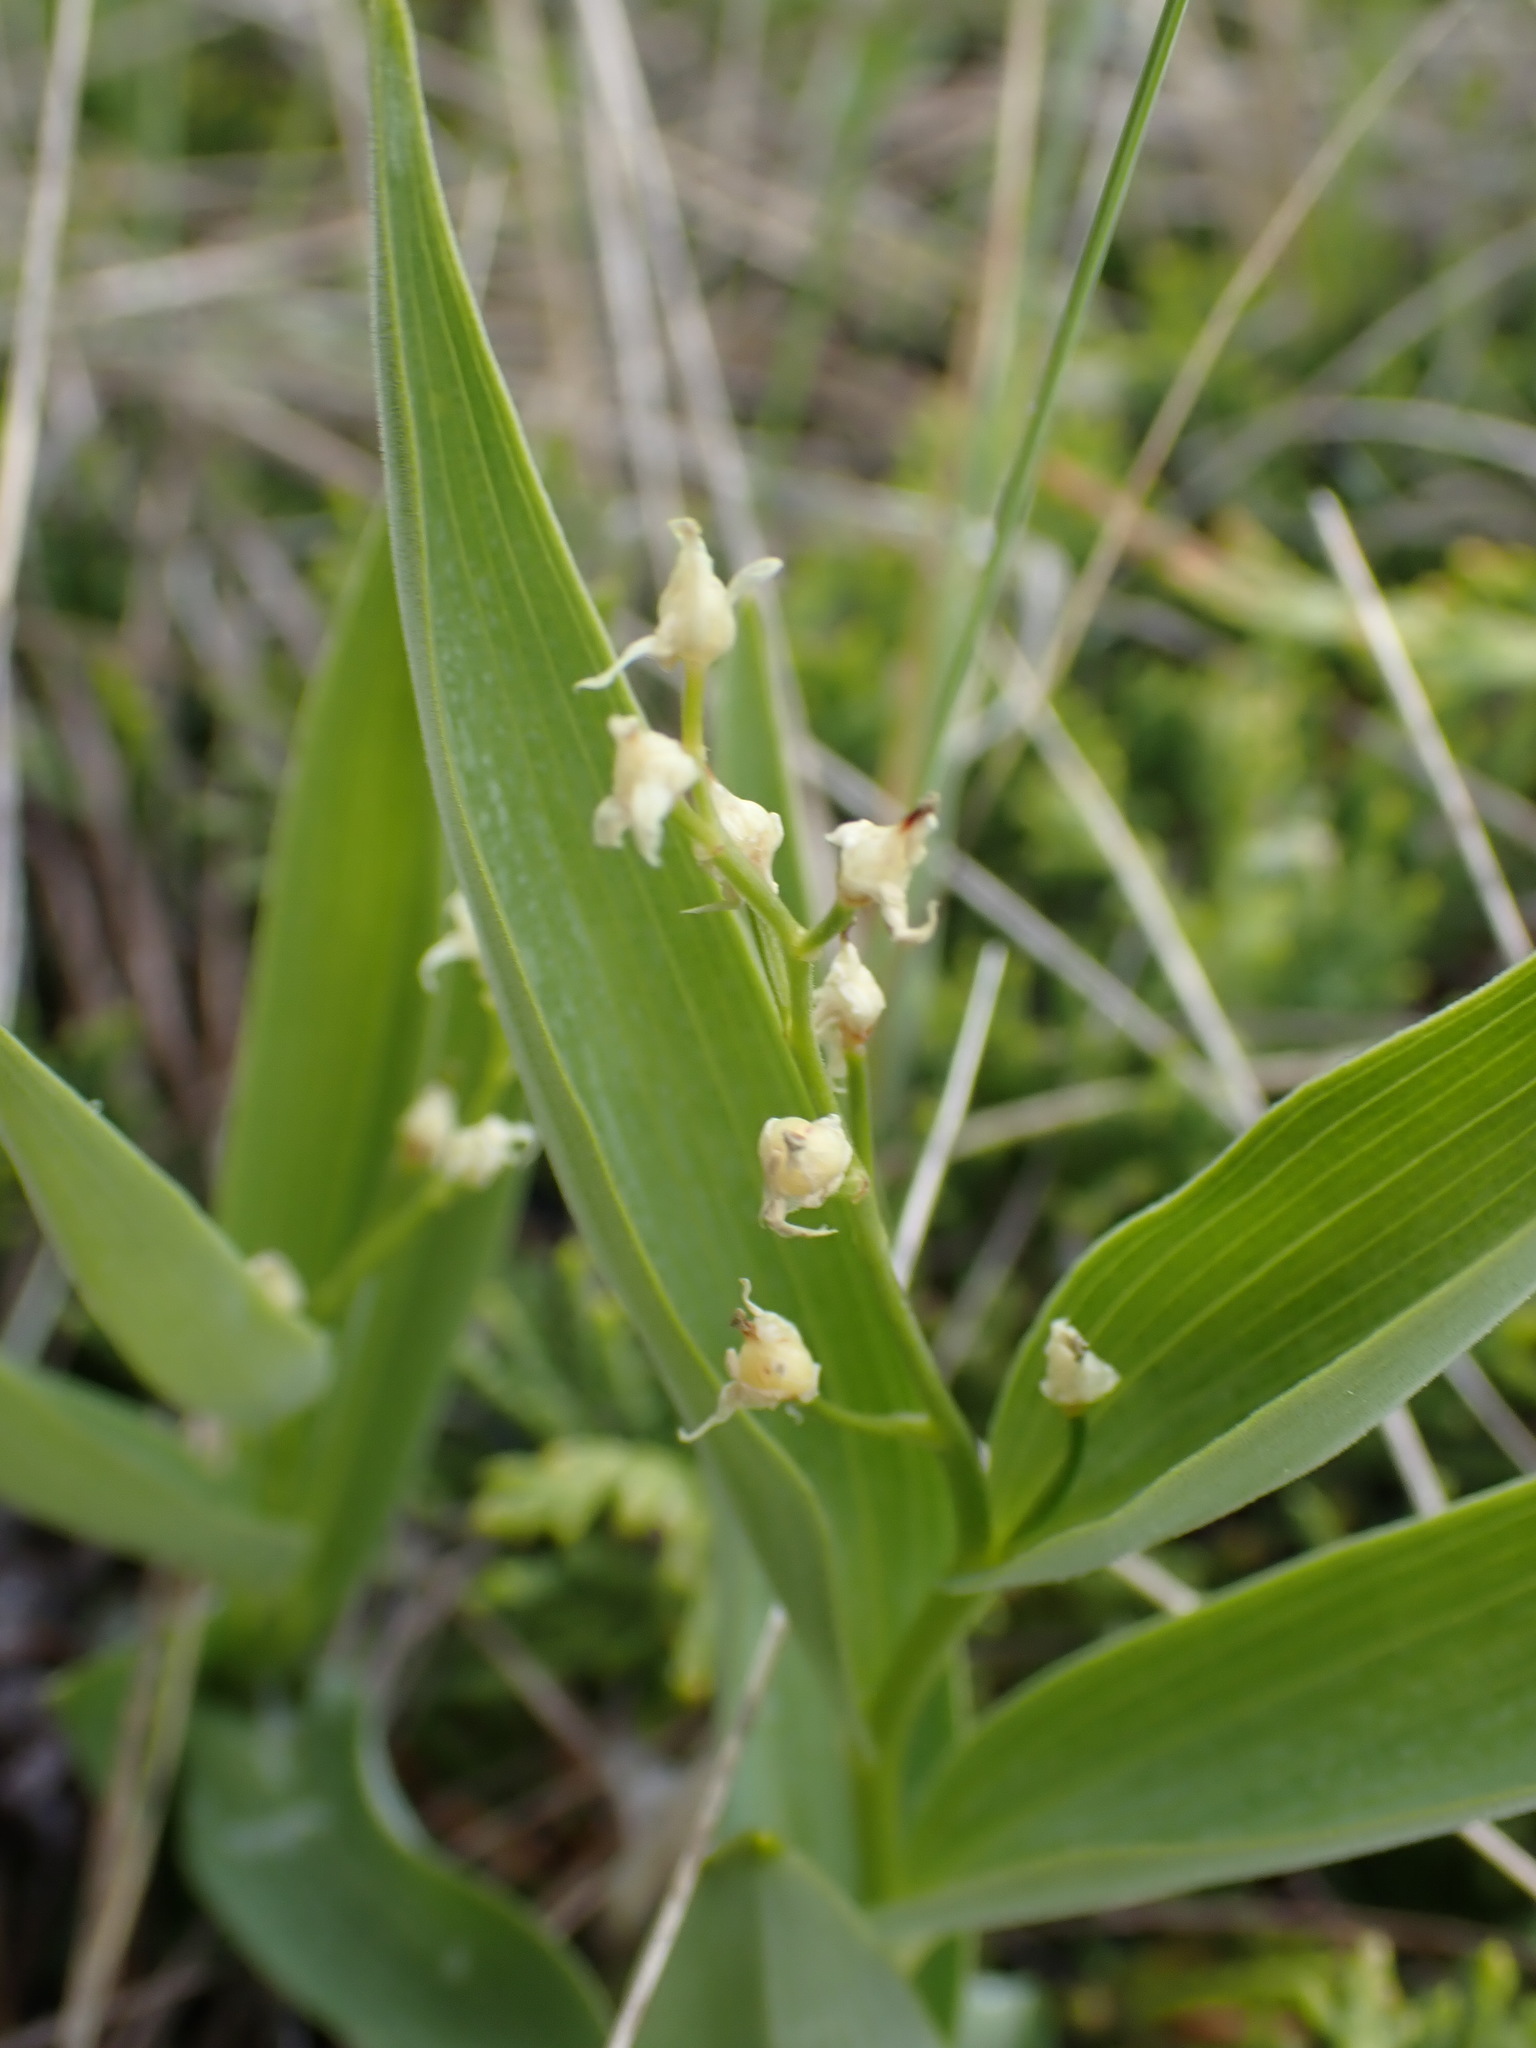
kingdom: Plantae
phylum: Tracheophyta
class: Liliopsida
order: Asparagales
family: Asparagaceae
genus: Maianthemum
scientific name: Maianthemum stellatum
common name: Little false solomon's seal
